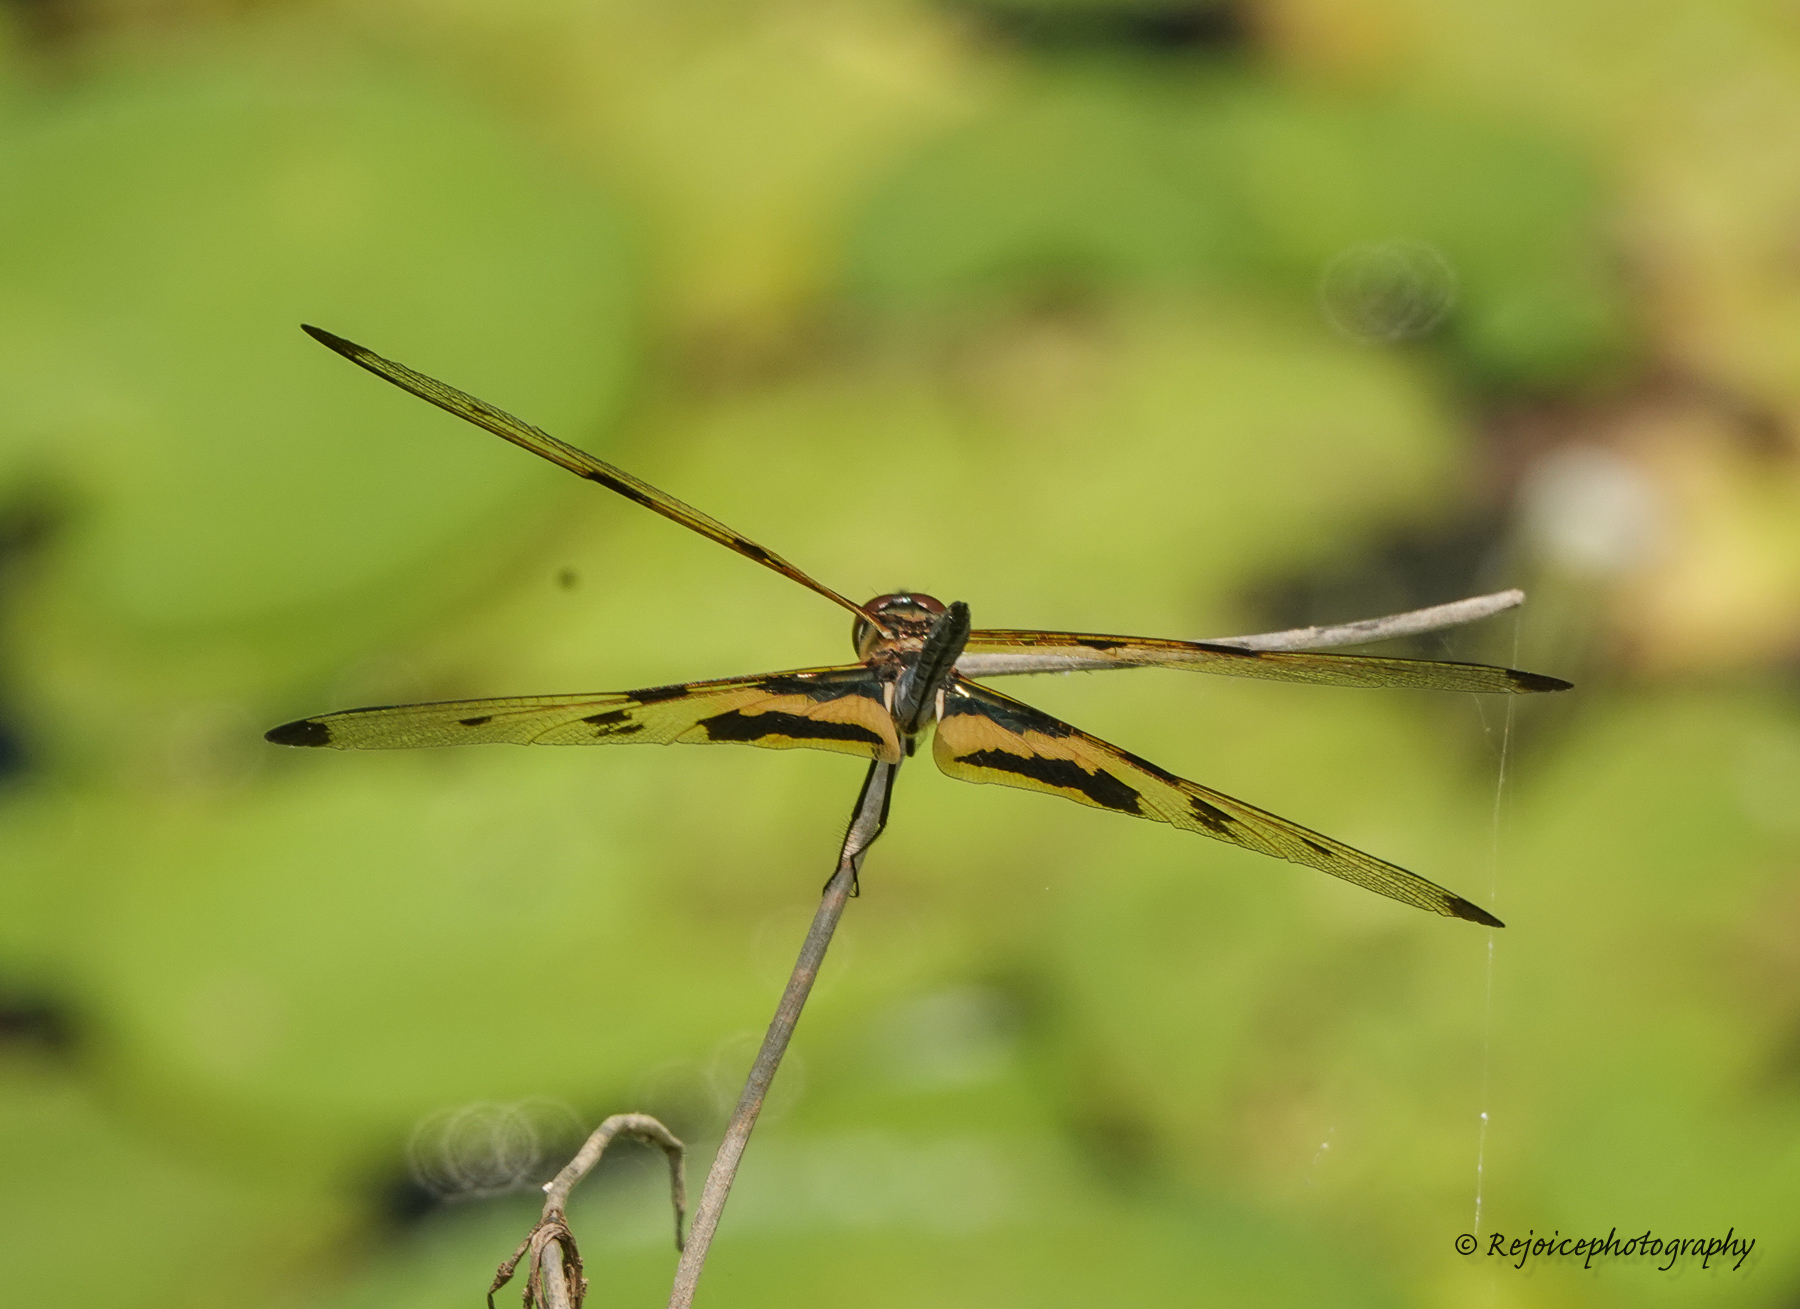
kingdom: Animalia
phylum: Arthropoda
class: Insecta
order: Odonata
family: Libellulidae
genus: Rhyothemis
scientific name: Rhyothemis variegata
